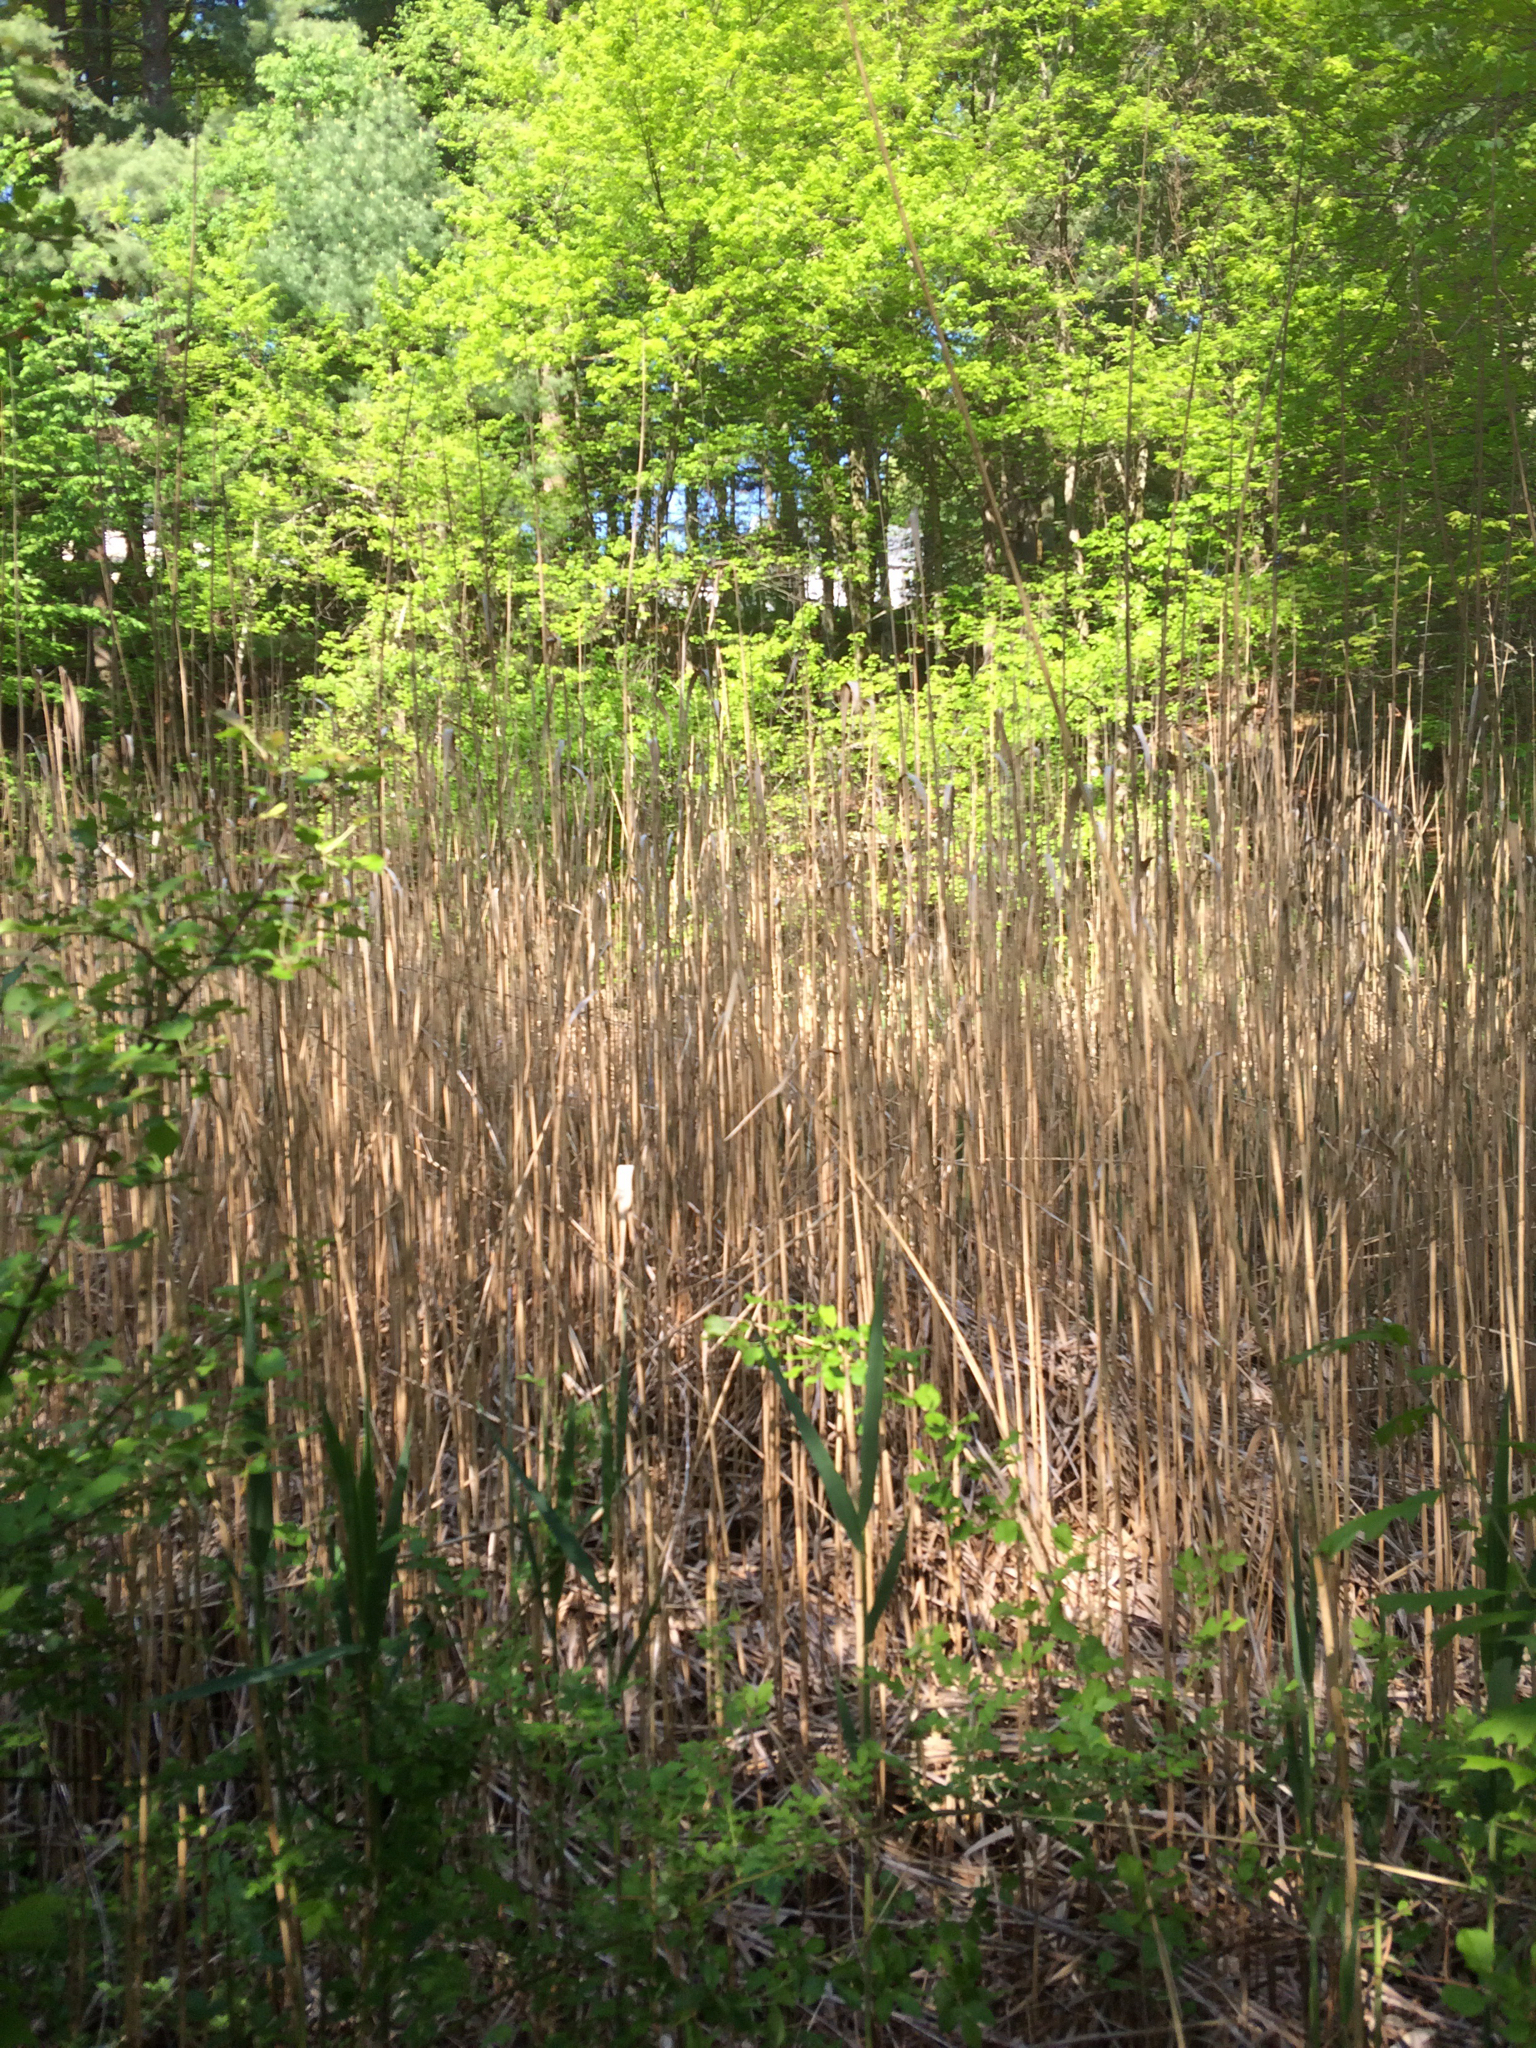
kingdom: Plantae
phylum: Tracheophyta
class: Liliopsida
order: Poales
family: Poaceae
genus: Phragmites
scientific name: Phragmites australis
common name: Common reed
